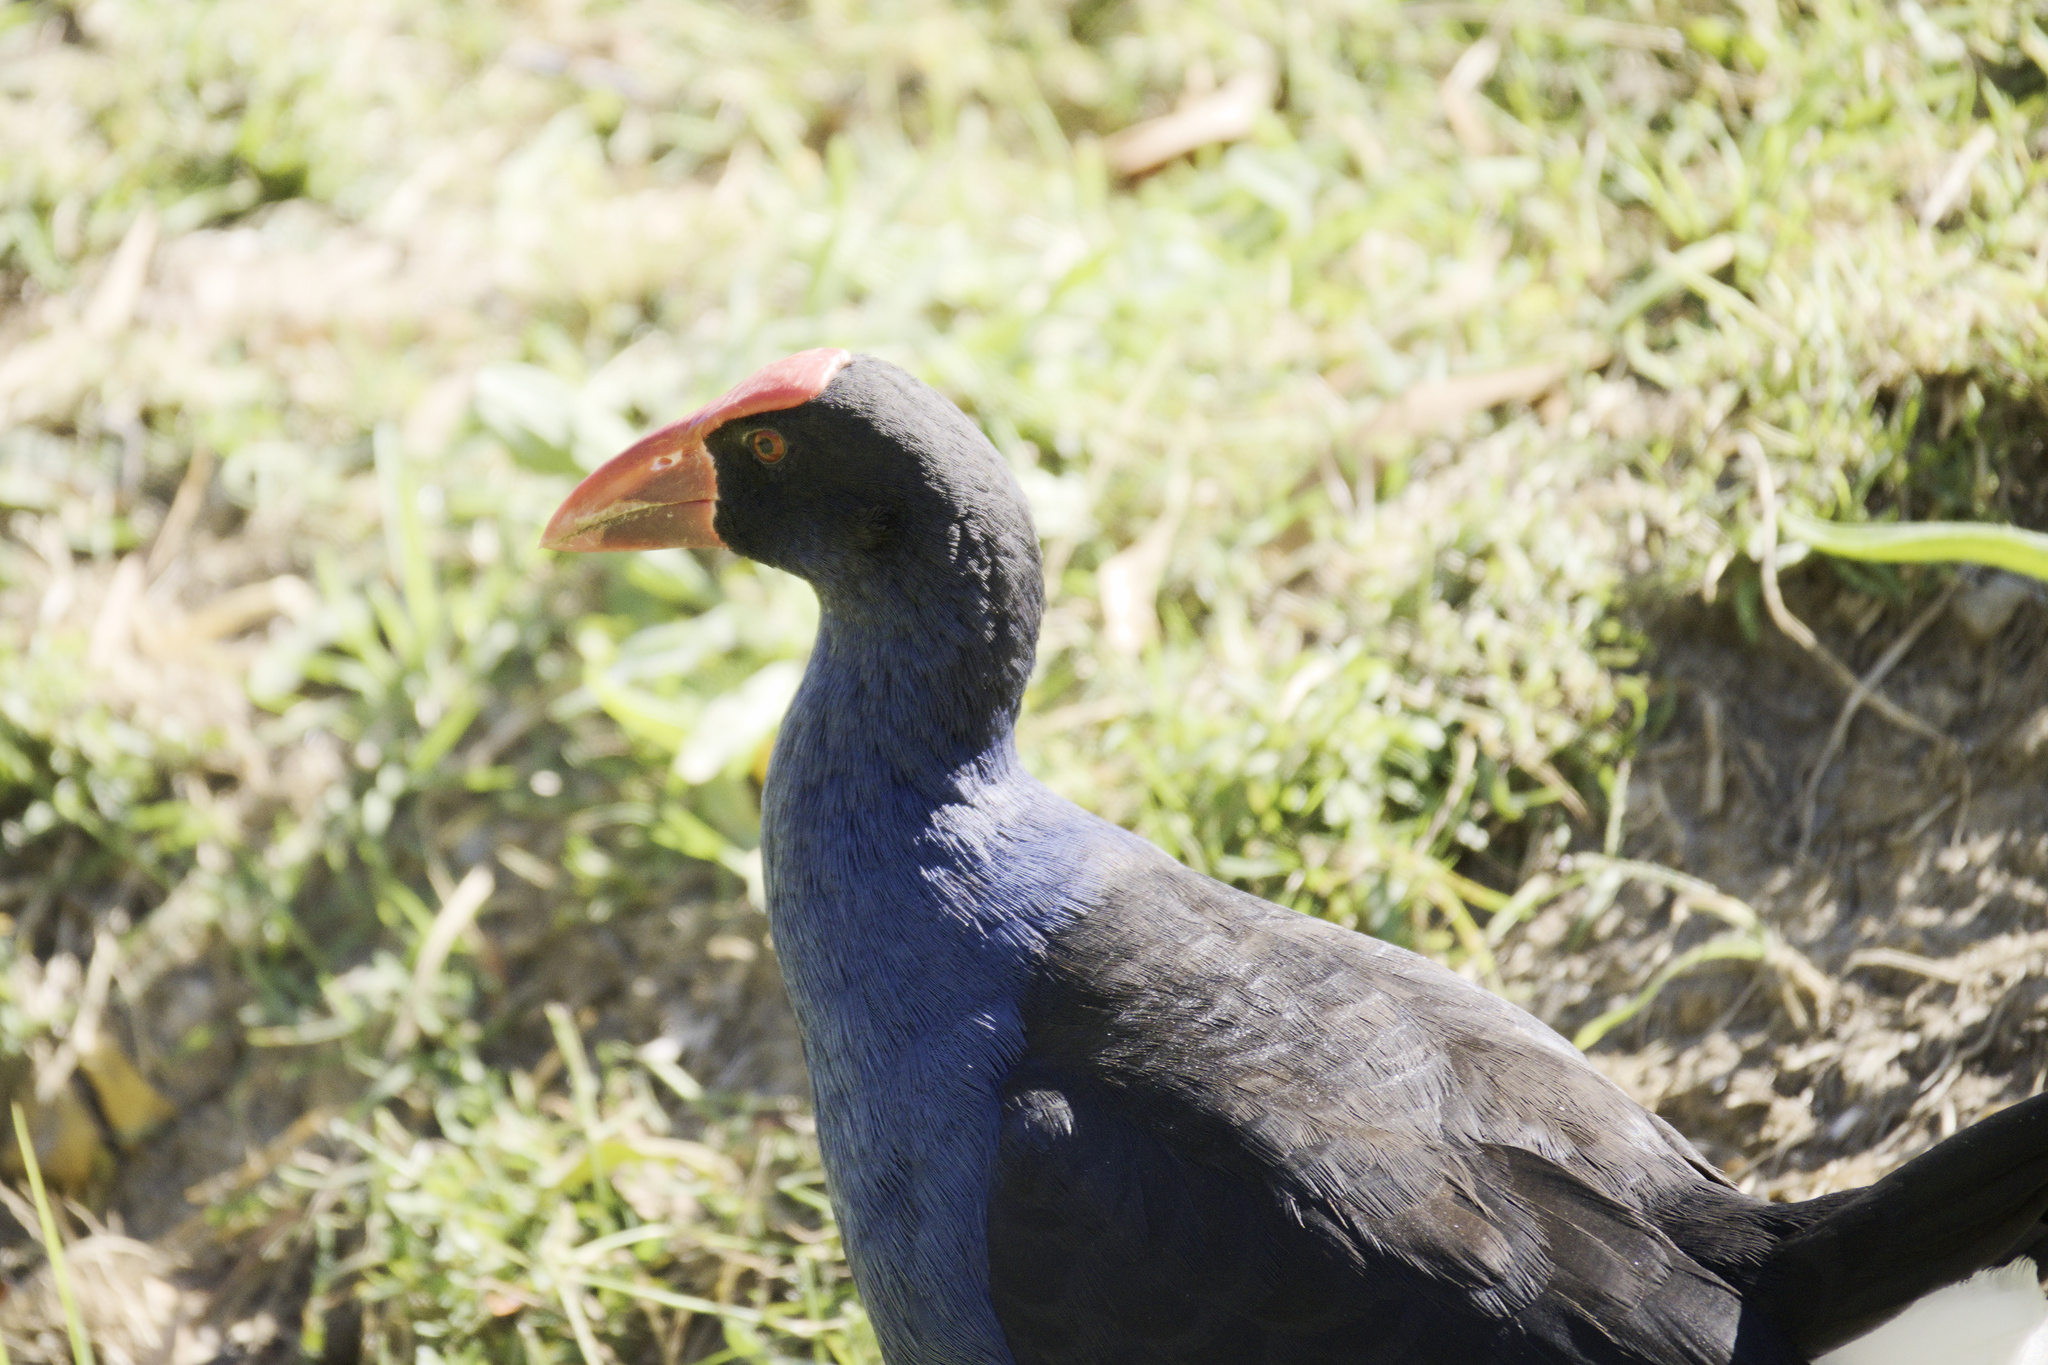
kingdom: Animalia
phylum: Chordata
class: Aves
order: Gruiformes
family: Rallidae
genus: Porphyrio
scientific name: Porphyrio melanotus
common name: Australasian swamphen
